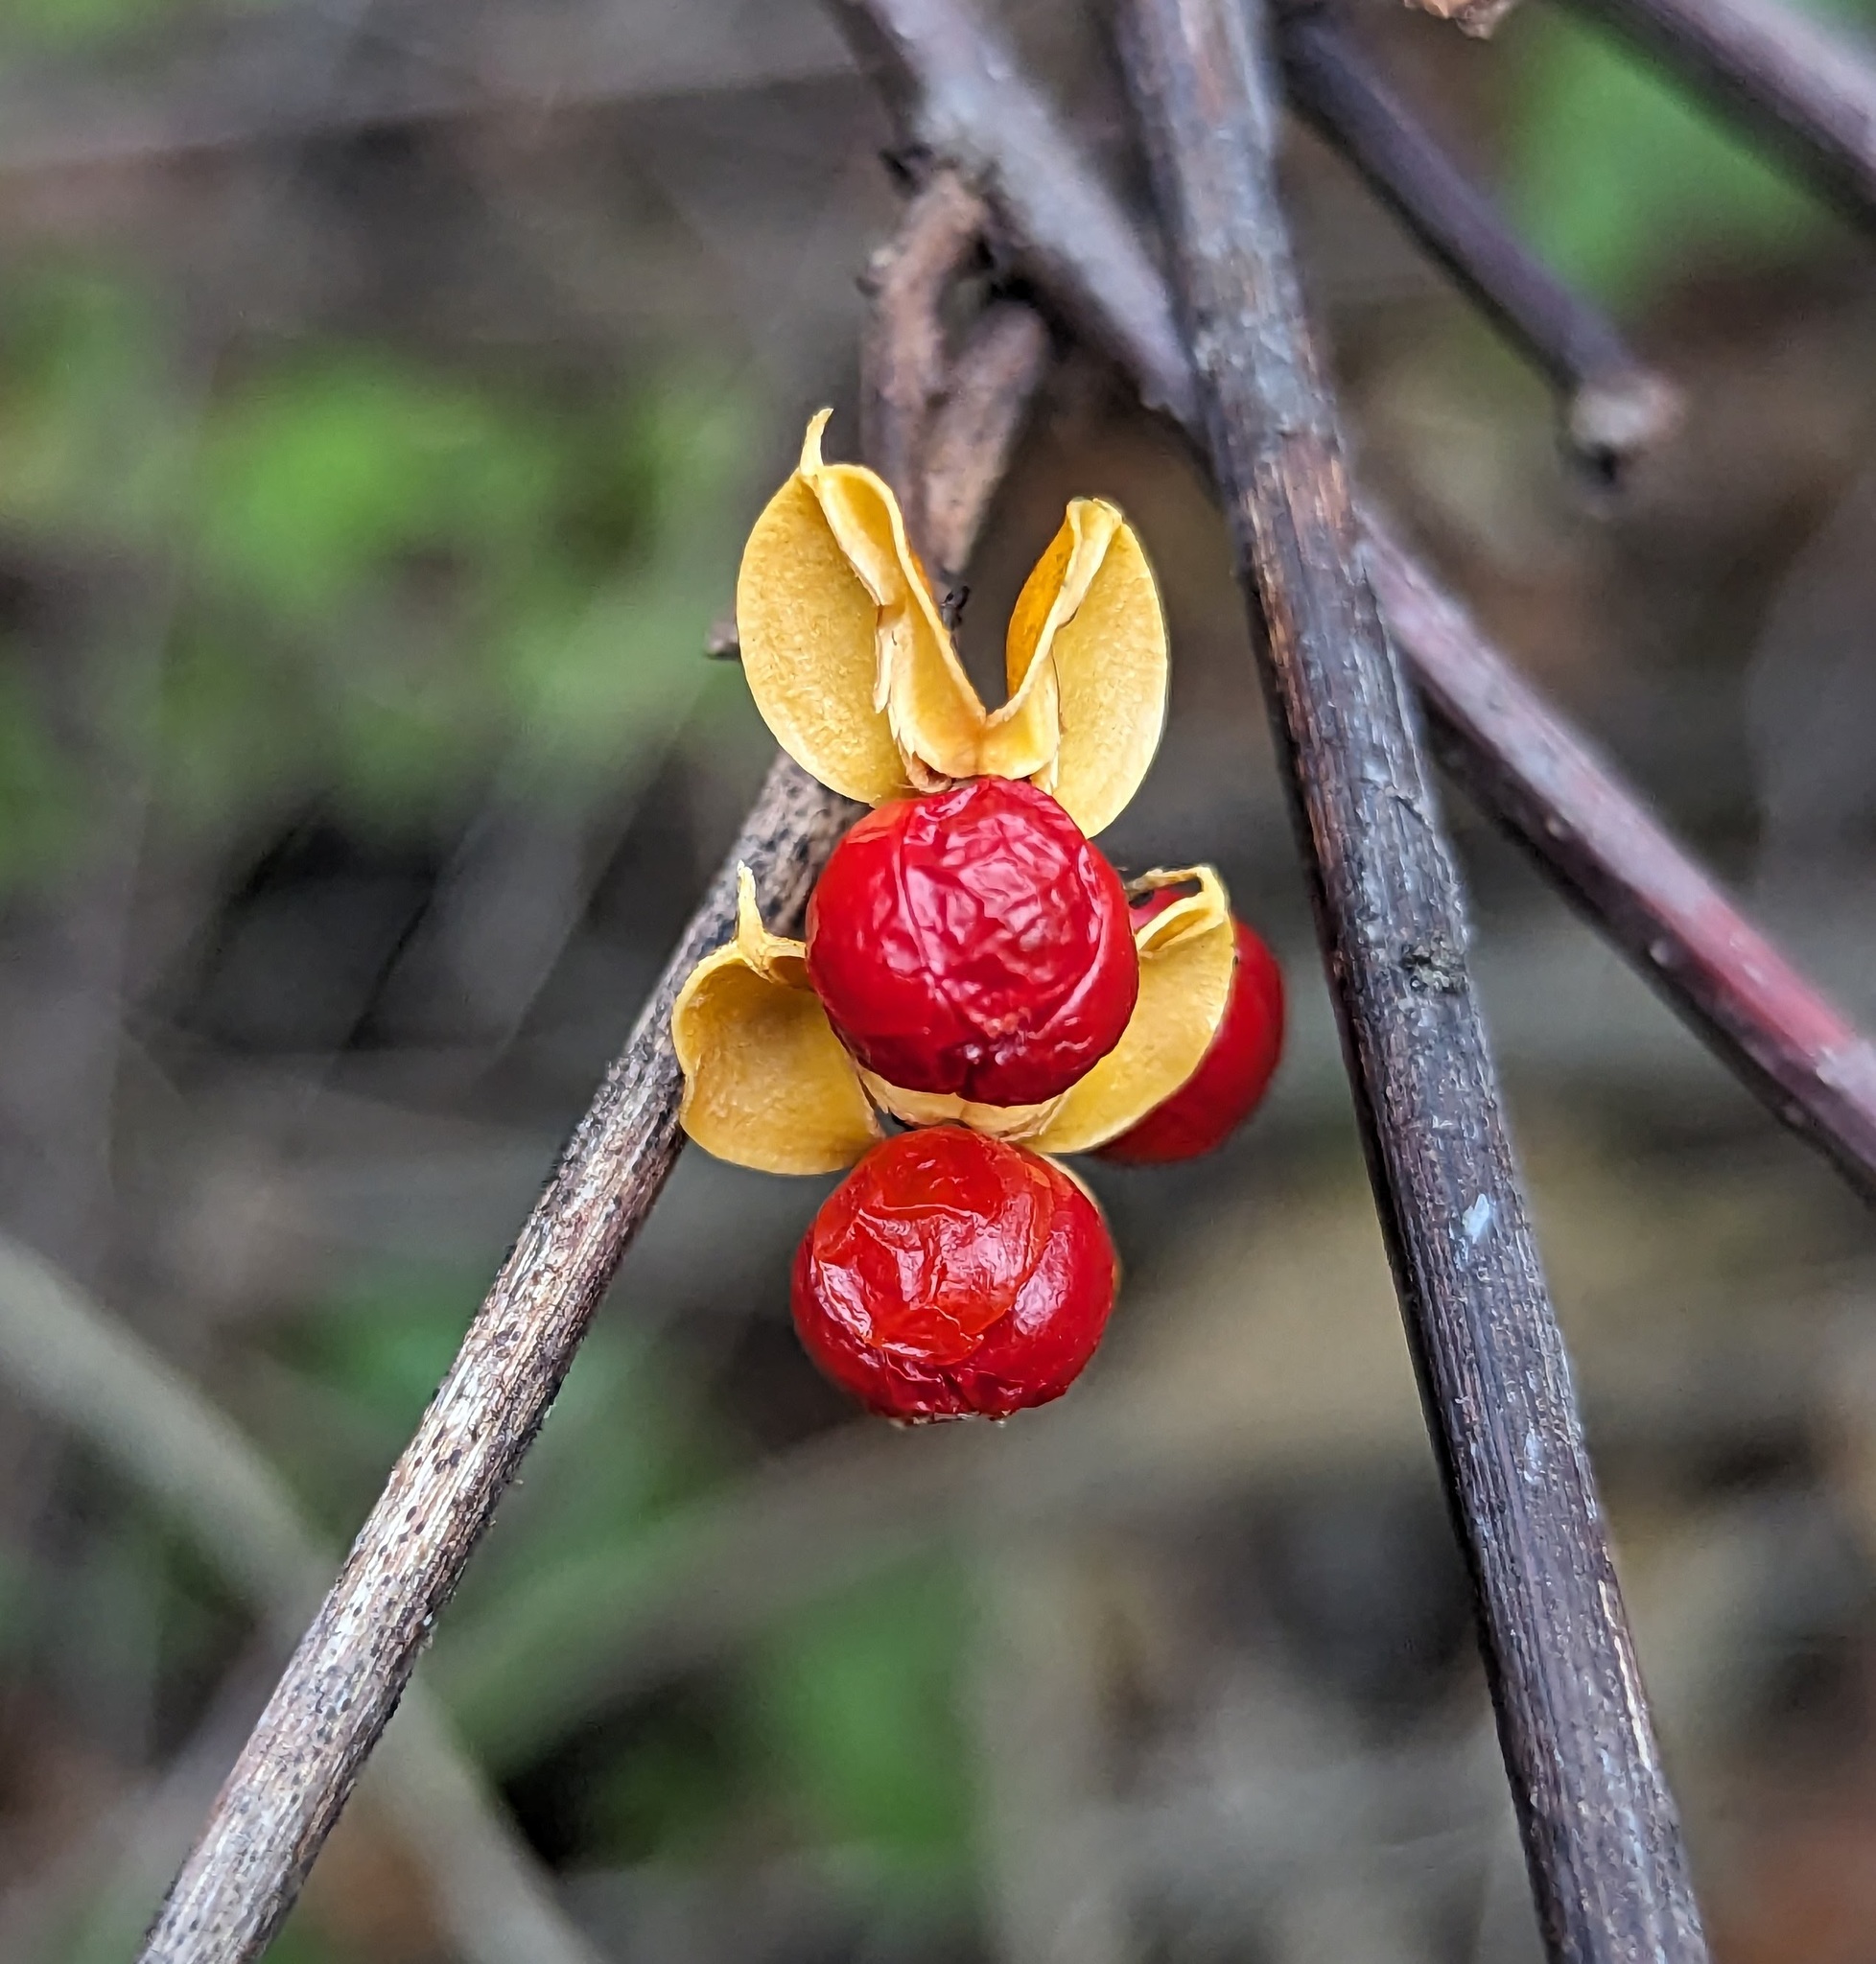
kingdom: Plantae
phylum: Tracheophyta
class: Magnoliopsida
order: Celastrales
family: Celastraceae
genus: Celastrus
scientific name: Celastrus orbiculatus
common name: Oriental bittersweet
